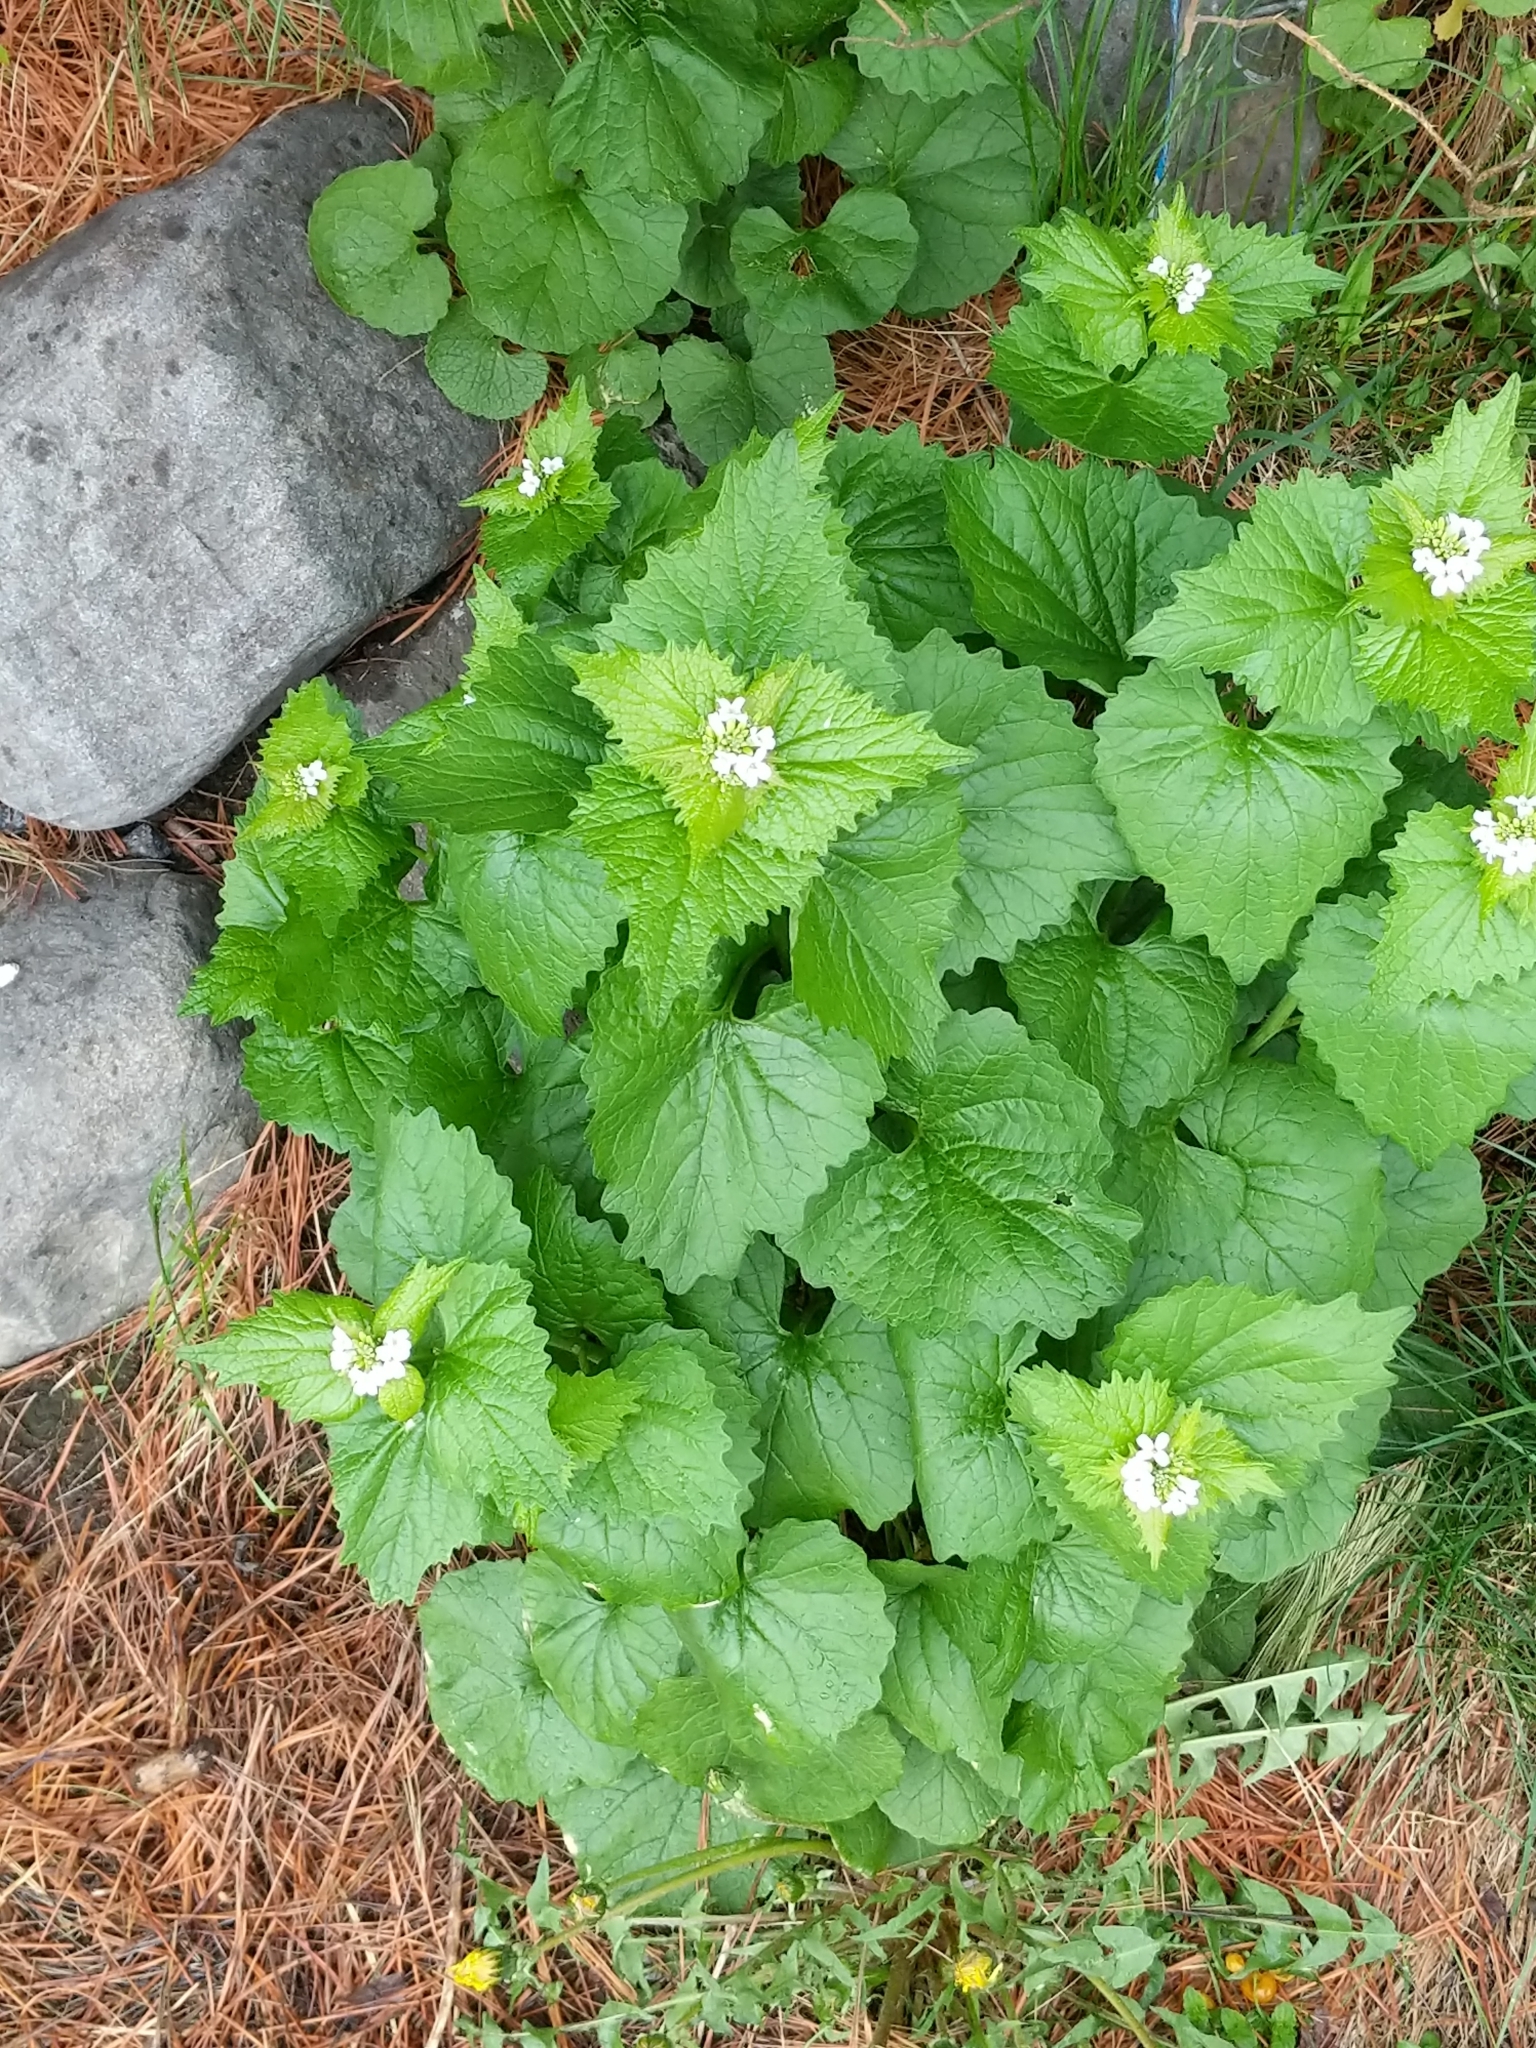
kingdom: Plantae
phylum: Tracheophyta
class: Magnoliopsida
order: Brassicales
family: Brassicaceae
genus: Alliaria
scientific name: Alliaria petiolata
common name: Garlic mustard
